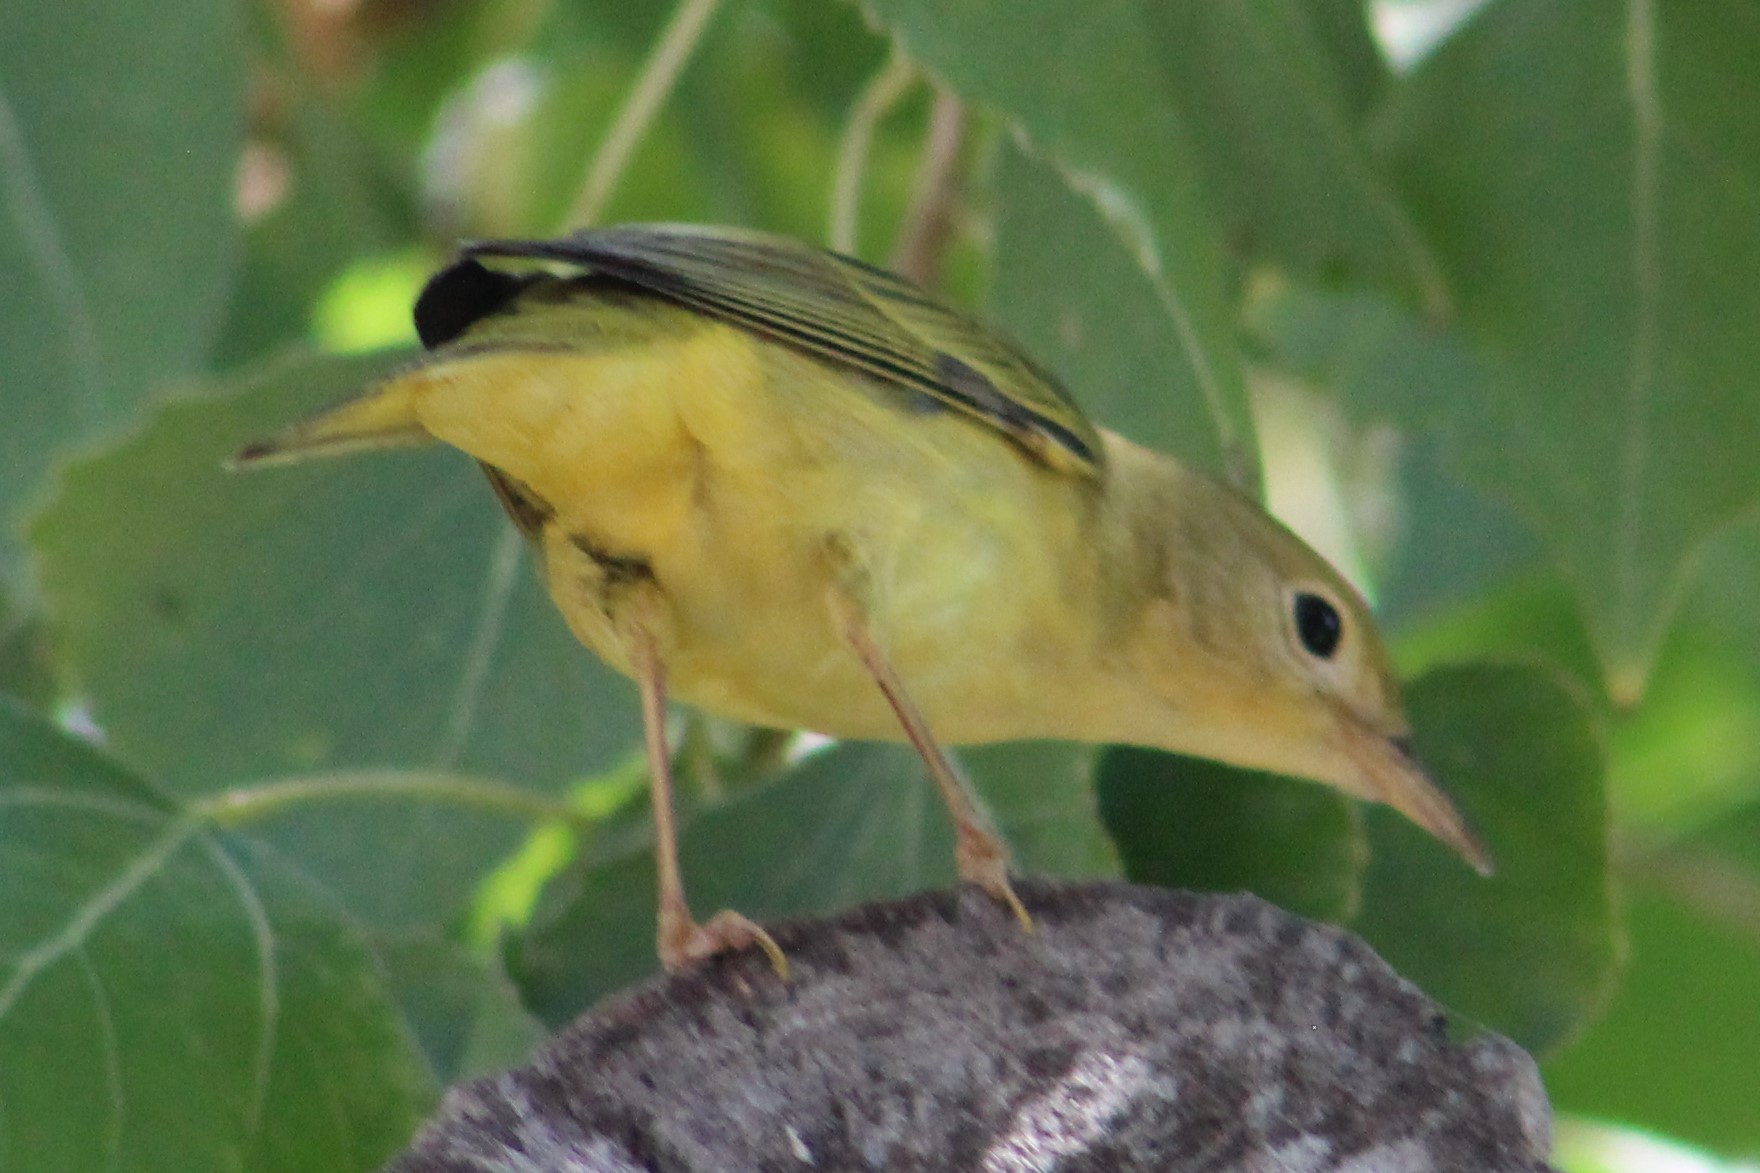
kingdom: Animalia
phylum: Chordata
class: Aves
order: Passeriformes
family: Parulidae
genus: Setophaga
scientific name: Setophaga petechia
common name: Yellow warbler
